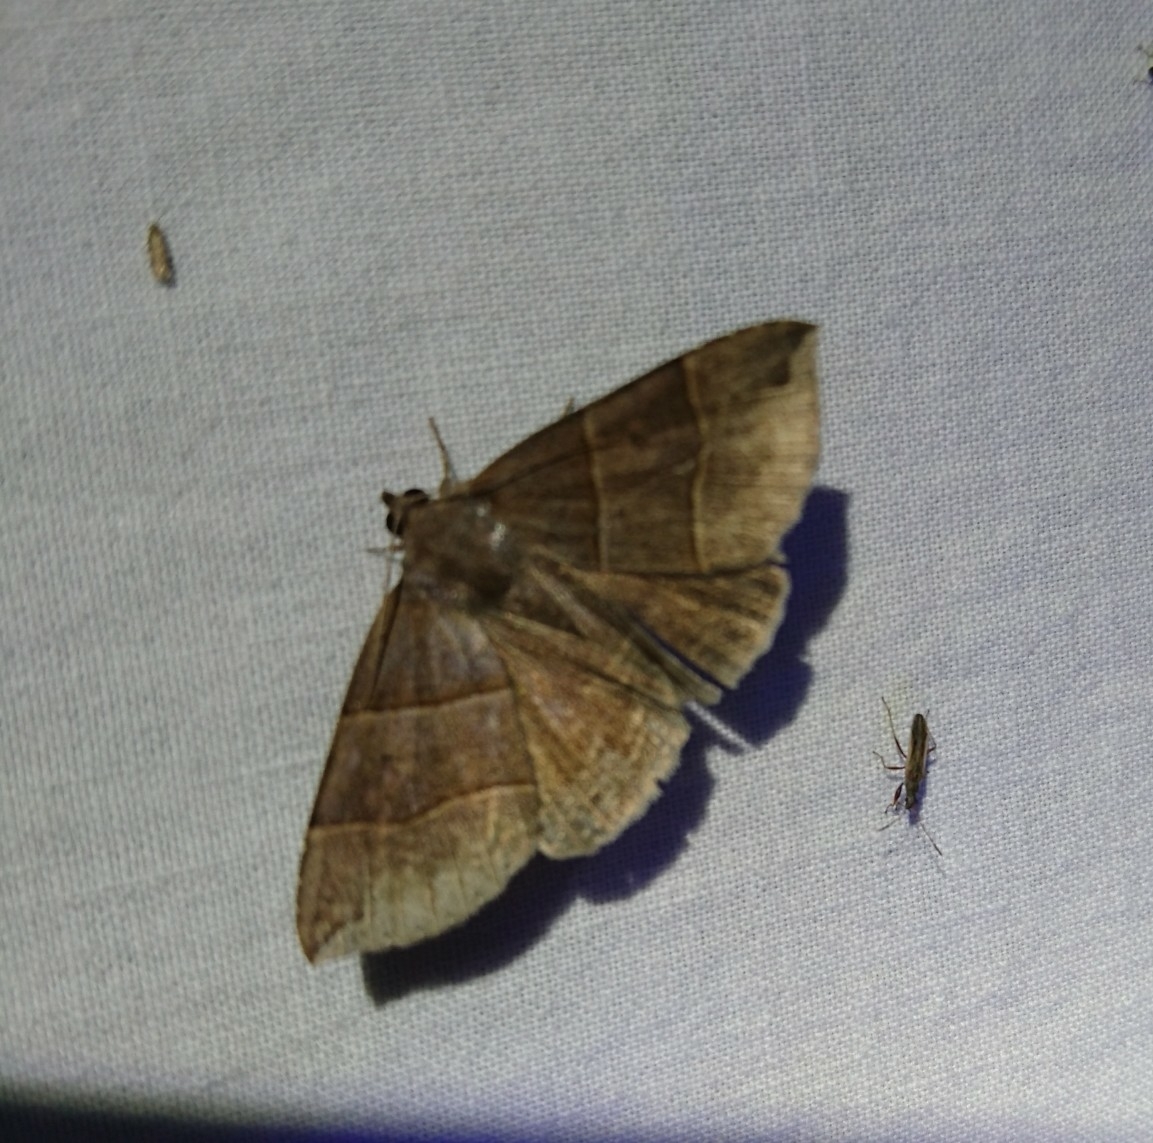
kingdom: Animalia
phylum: Arthropoda
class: Insecta
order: Lepidoptera
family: Erebidae
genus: Parallelia
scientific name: Parallelia bistriaris
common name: Maple looper moth
